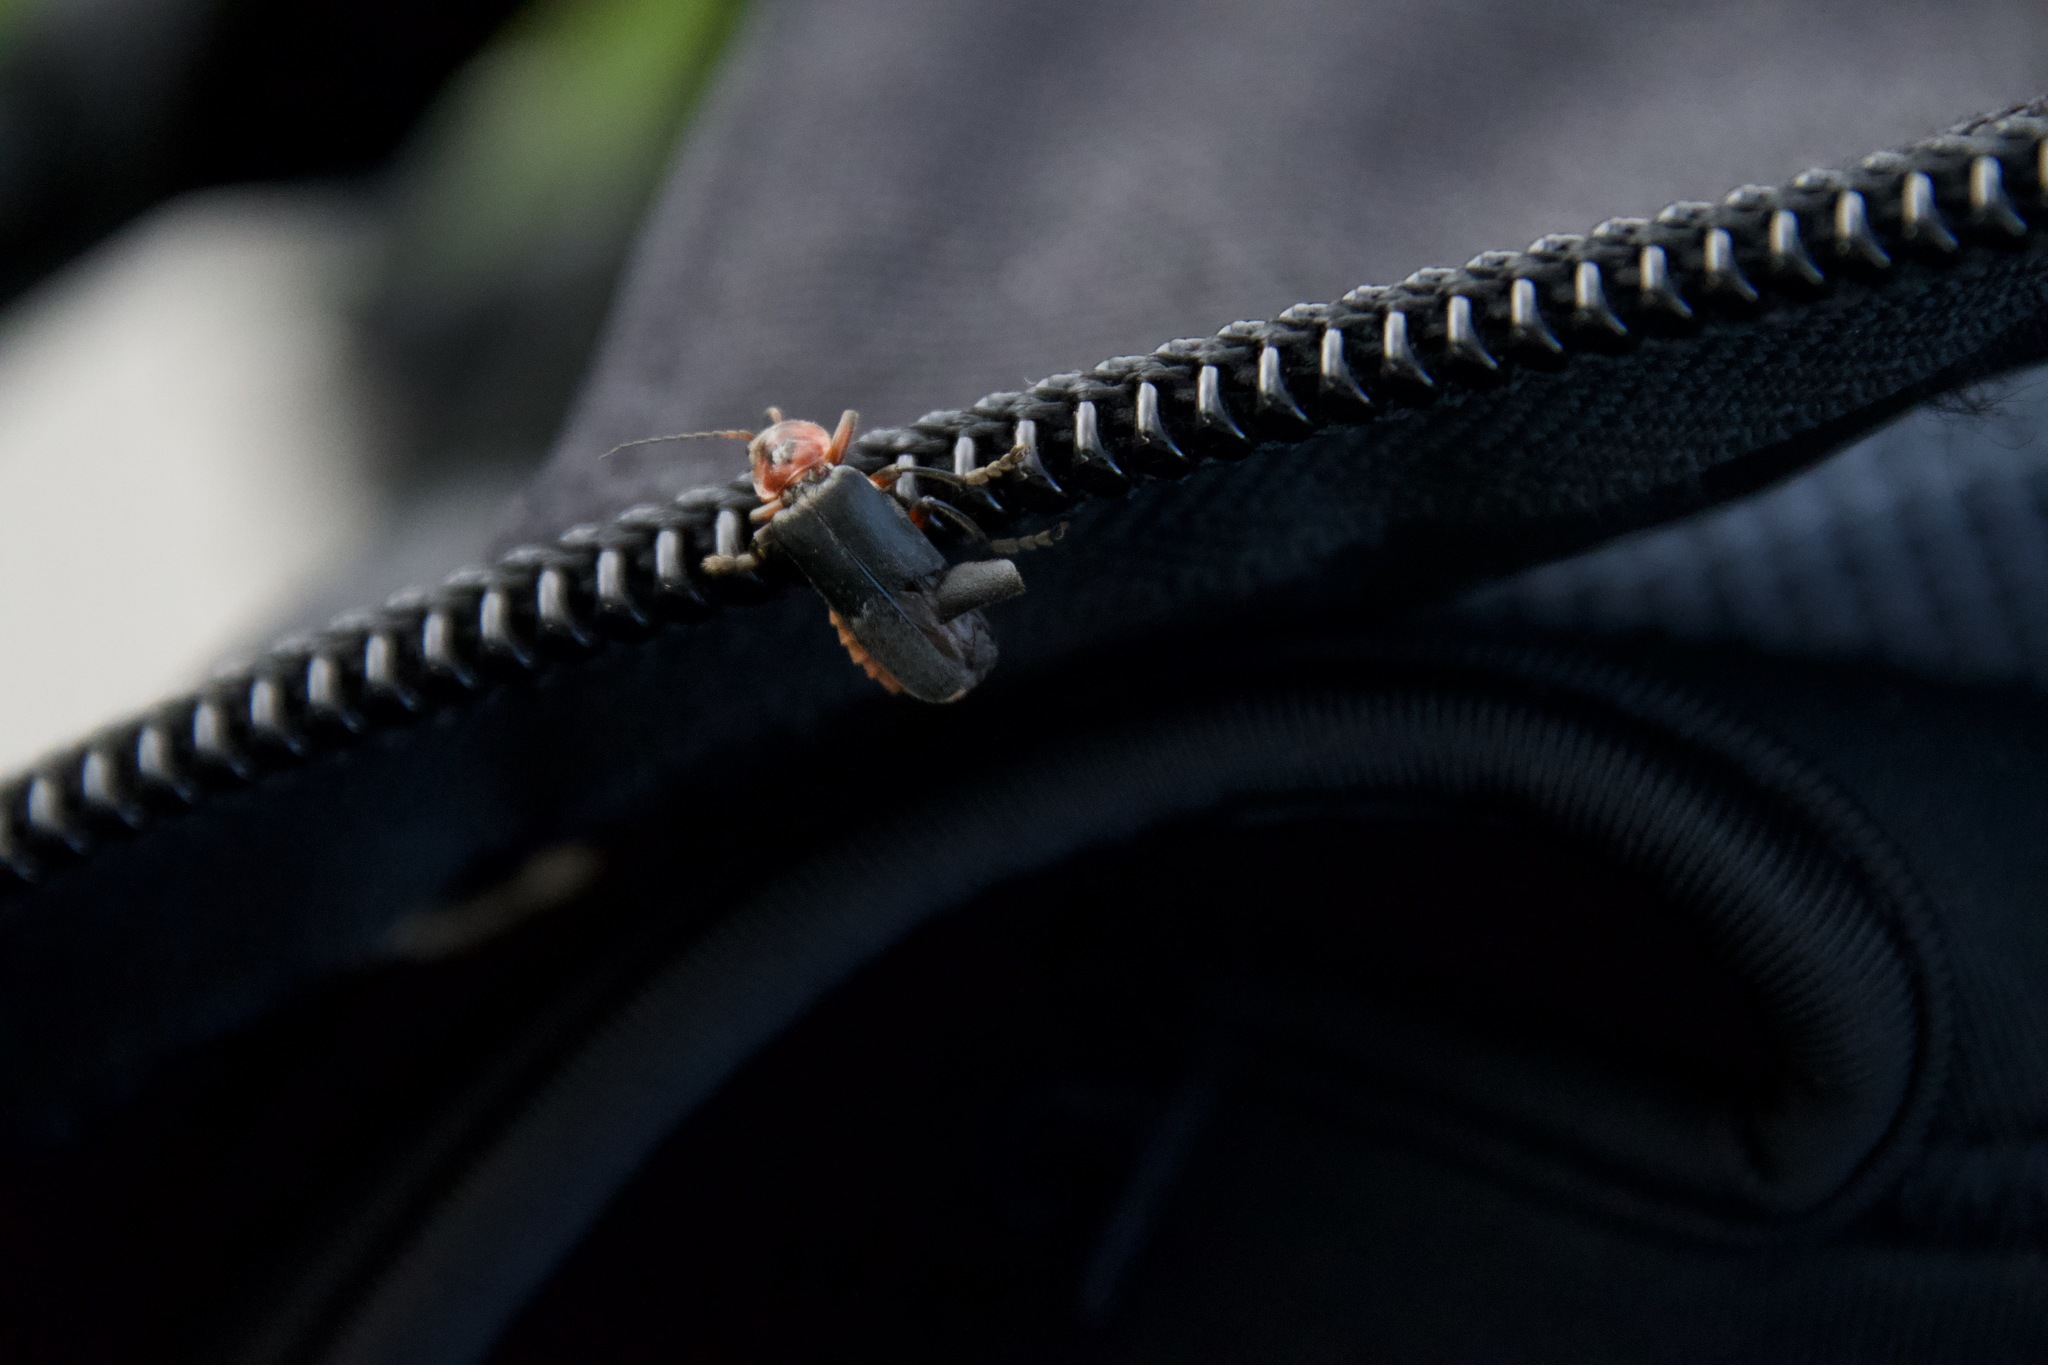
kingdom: Animalia
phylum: Arthropoda
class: Insecta
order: Coleoptera
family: Cantharidae
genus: Cantharis
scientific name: Cantharis rustica
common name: Soldier beetle
